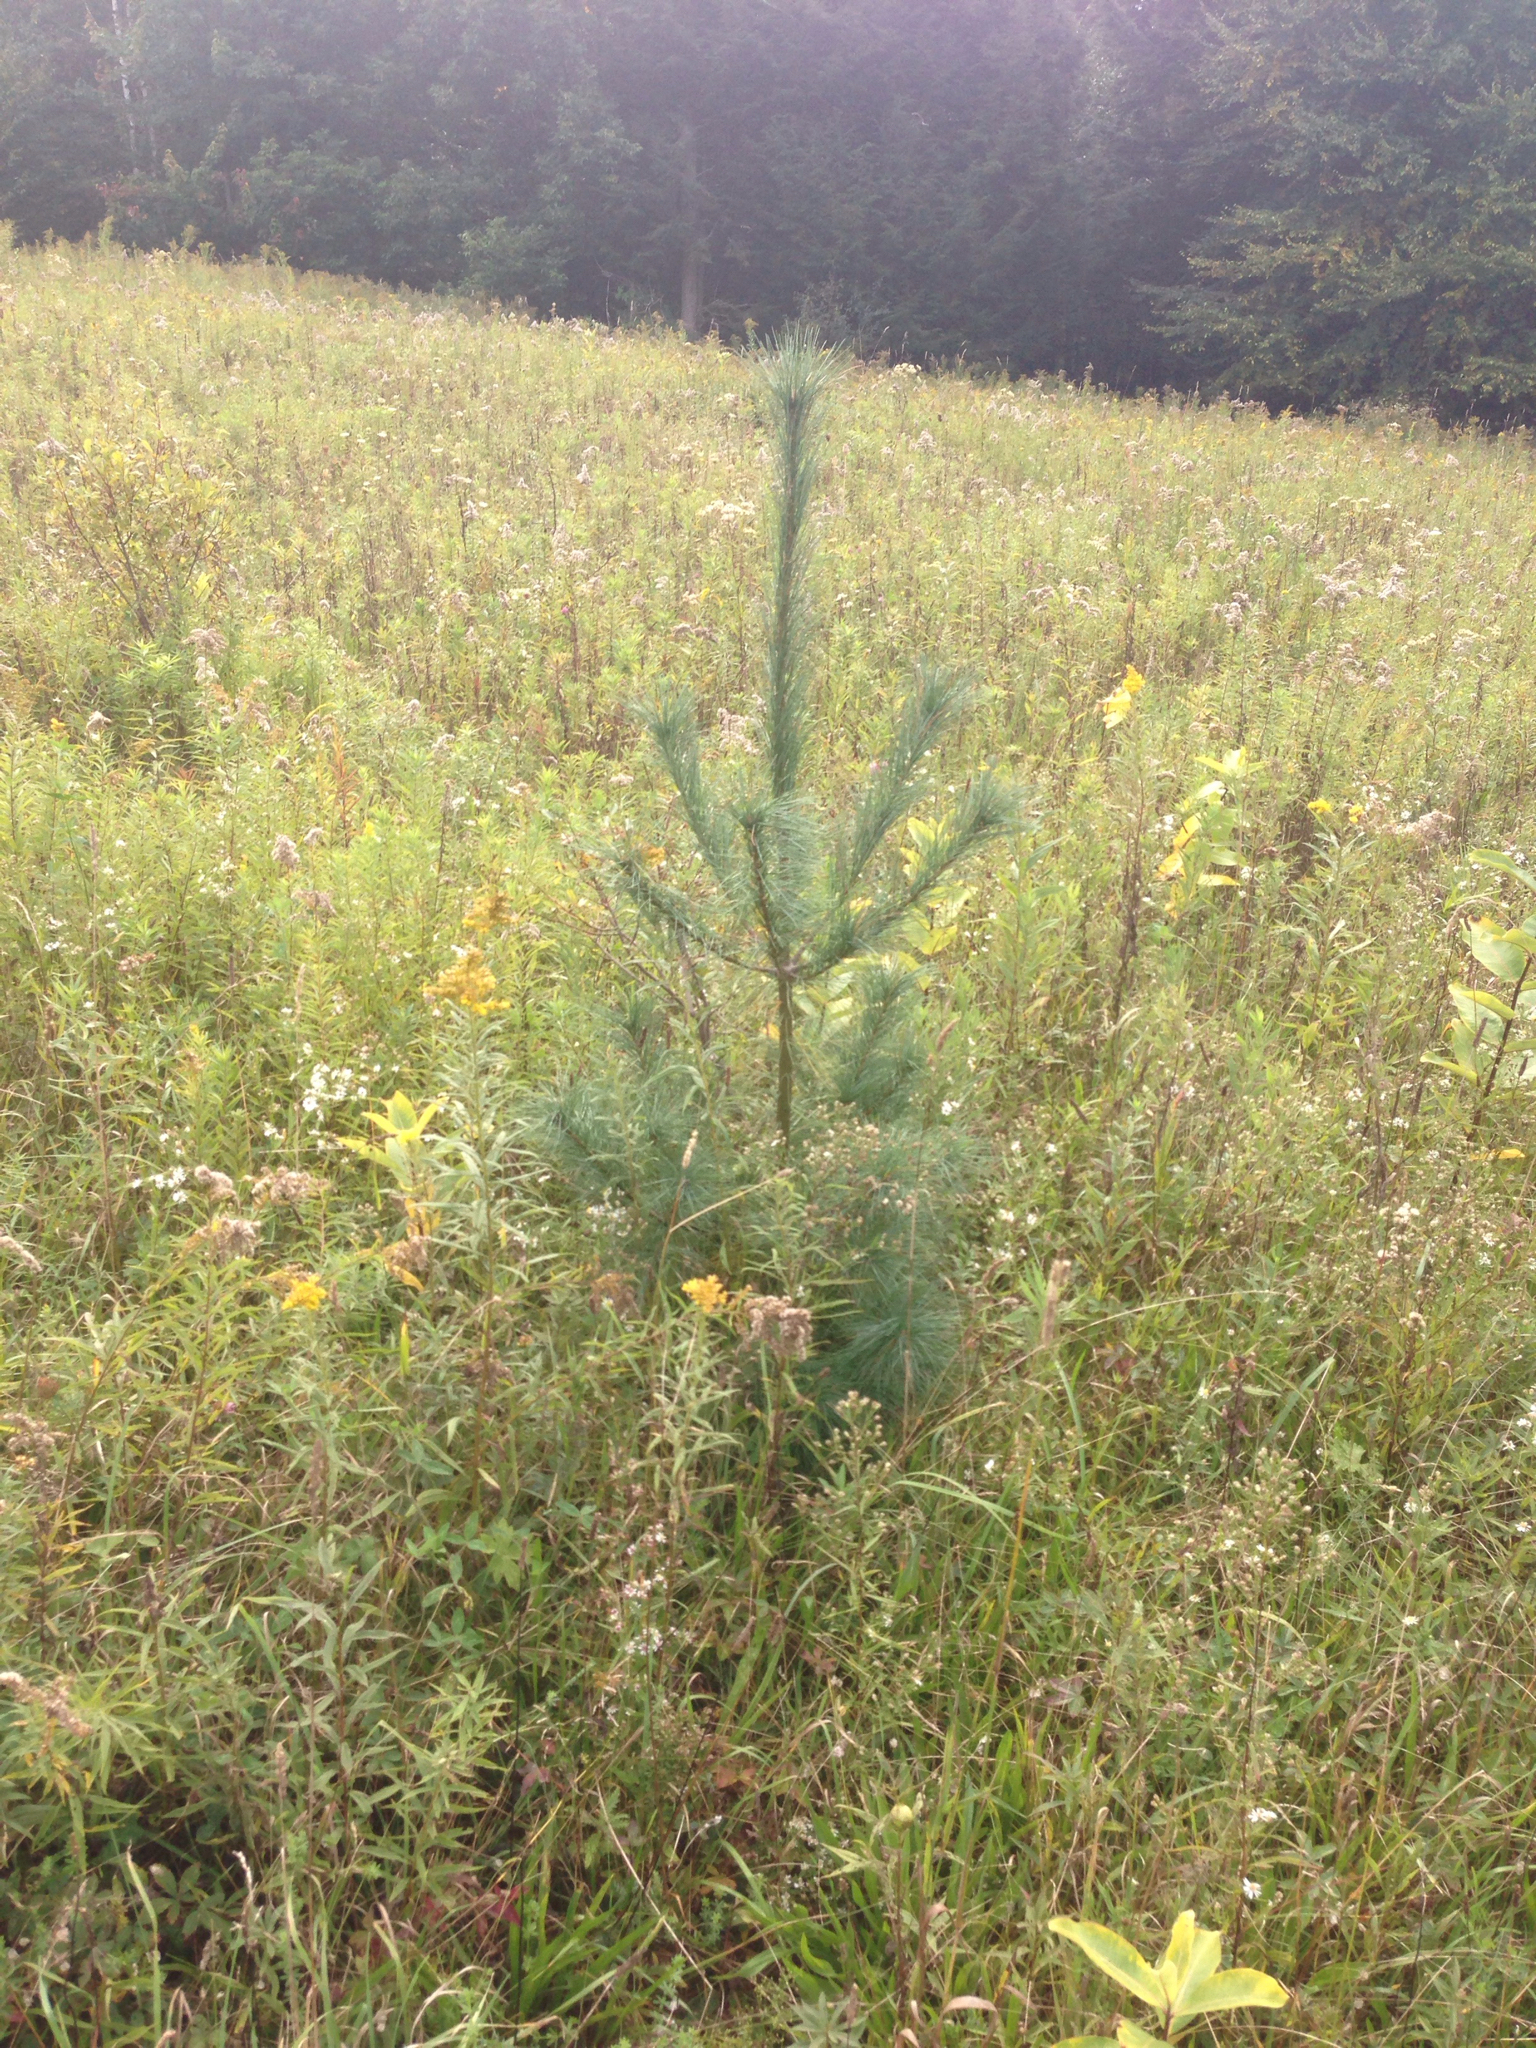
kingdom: Plantae
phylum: Tracheophyta
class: Pinopsida
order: Pinales
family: Pinaceae
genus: Pinus
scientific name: Pinus strobus
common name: Weymouth pine
